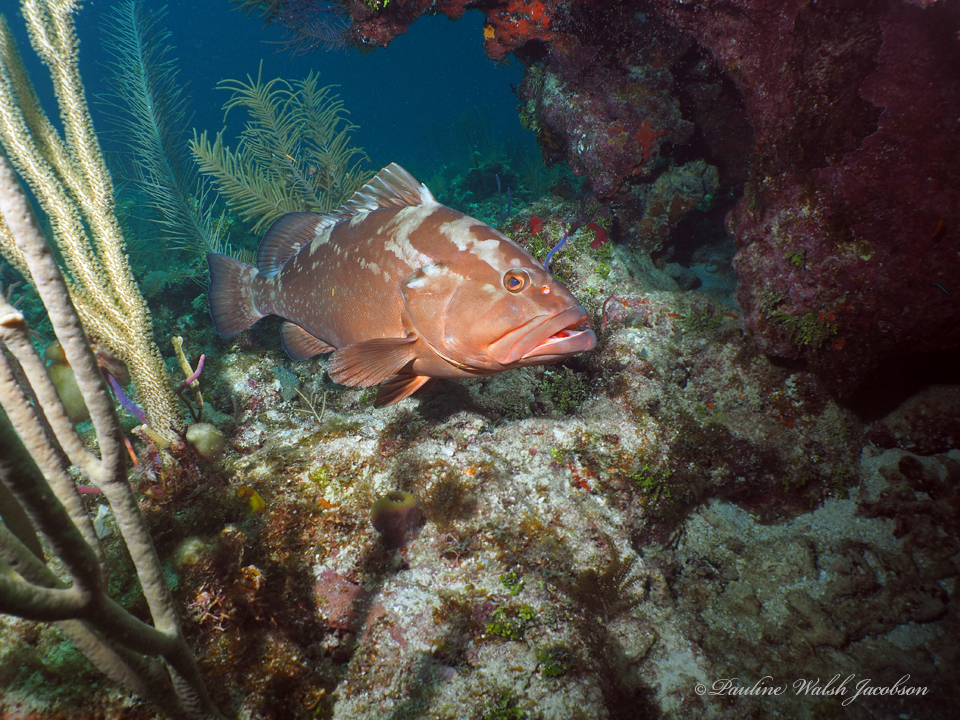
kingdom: Animalia
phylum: Chordata
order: Perciformes
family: Serranidae
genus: Epinephelus
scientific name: Epinephelus morio
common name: Red grouper
